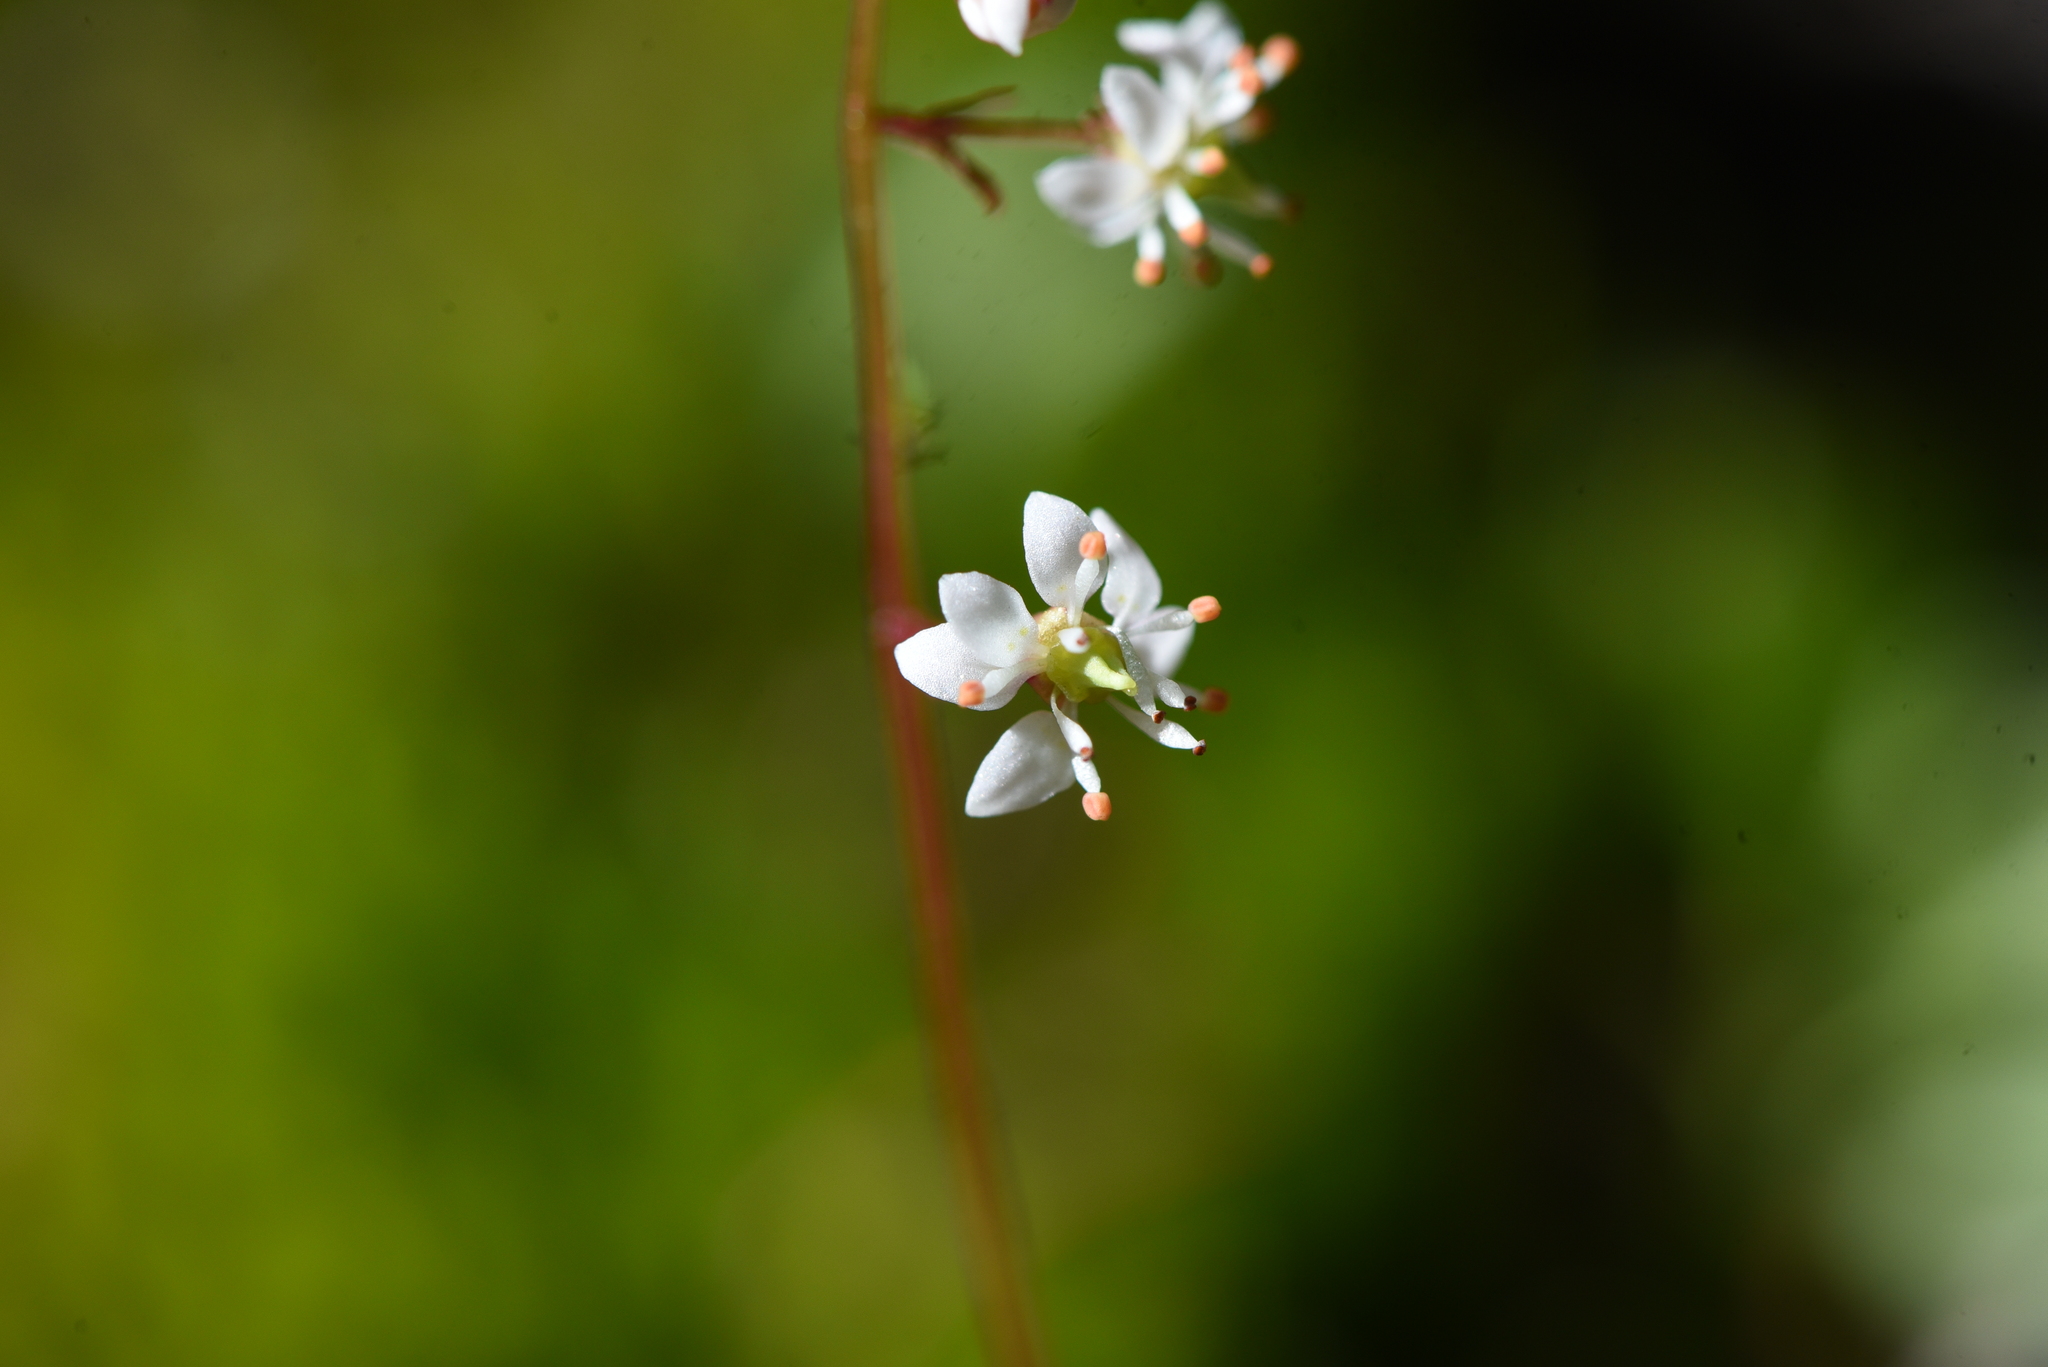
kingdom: Plantae
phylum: Tracheophyta
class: Magnoliopsida
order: Saxifragales
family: Saxifragaceae
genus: Micranthes
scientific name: Micranthes lyallii
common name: Lyall's saxifrage
